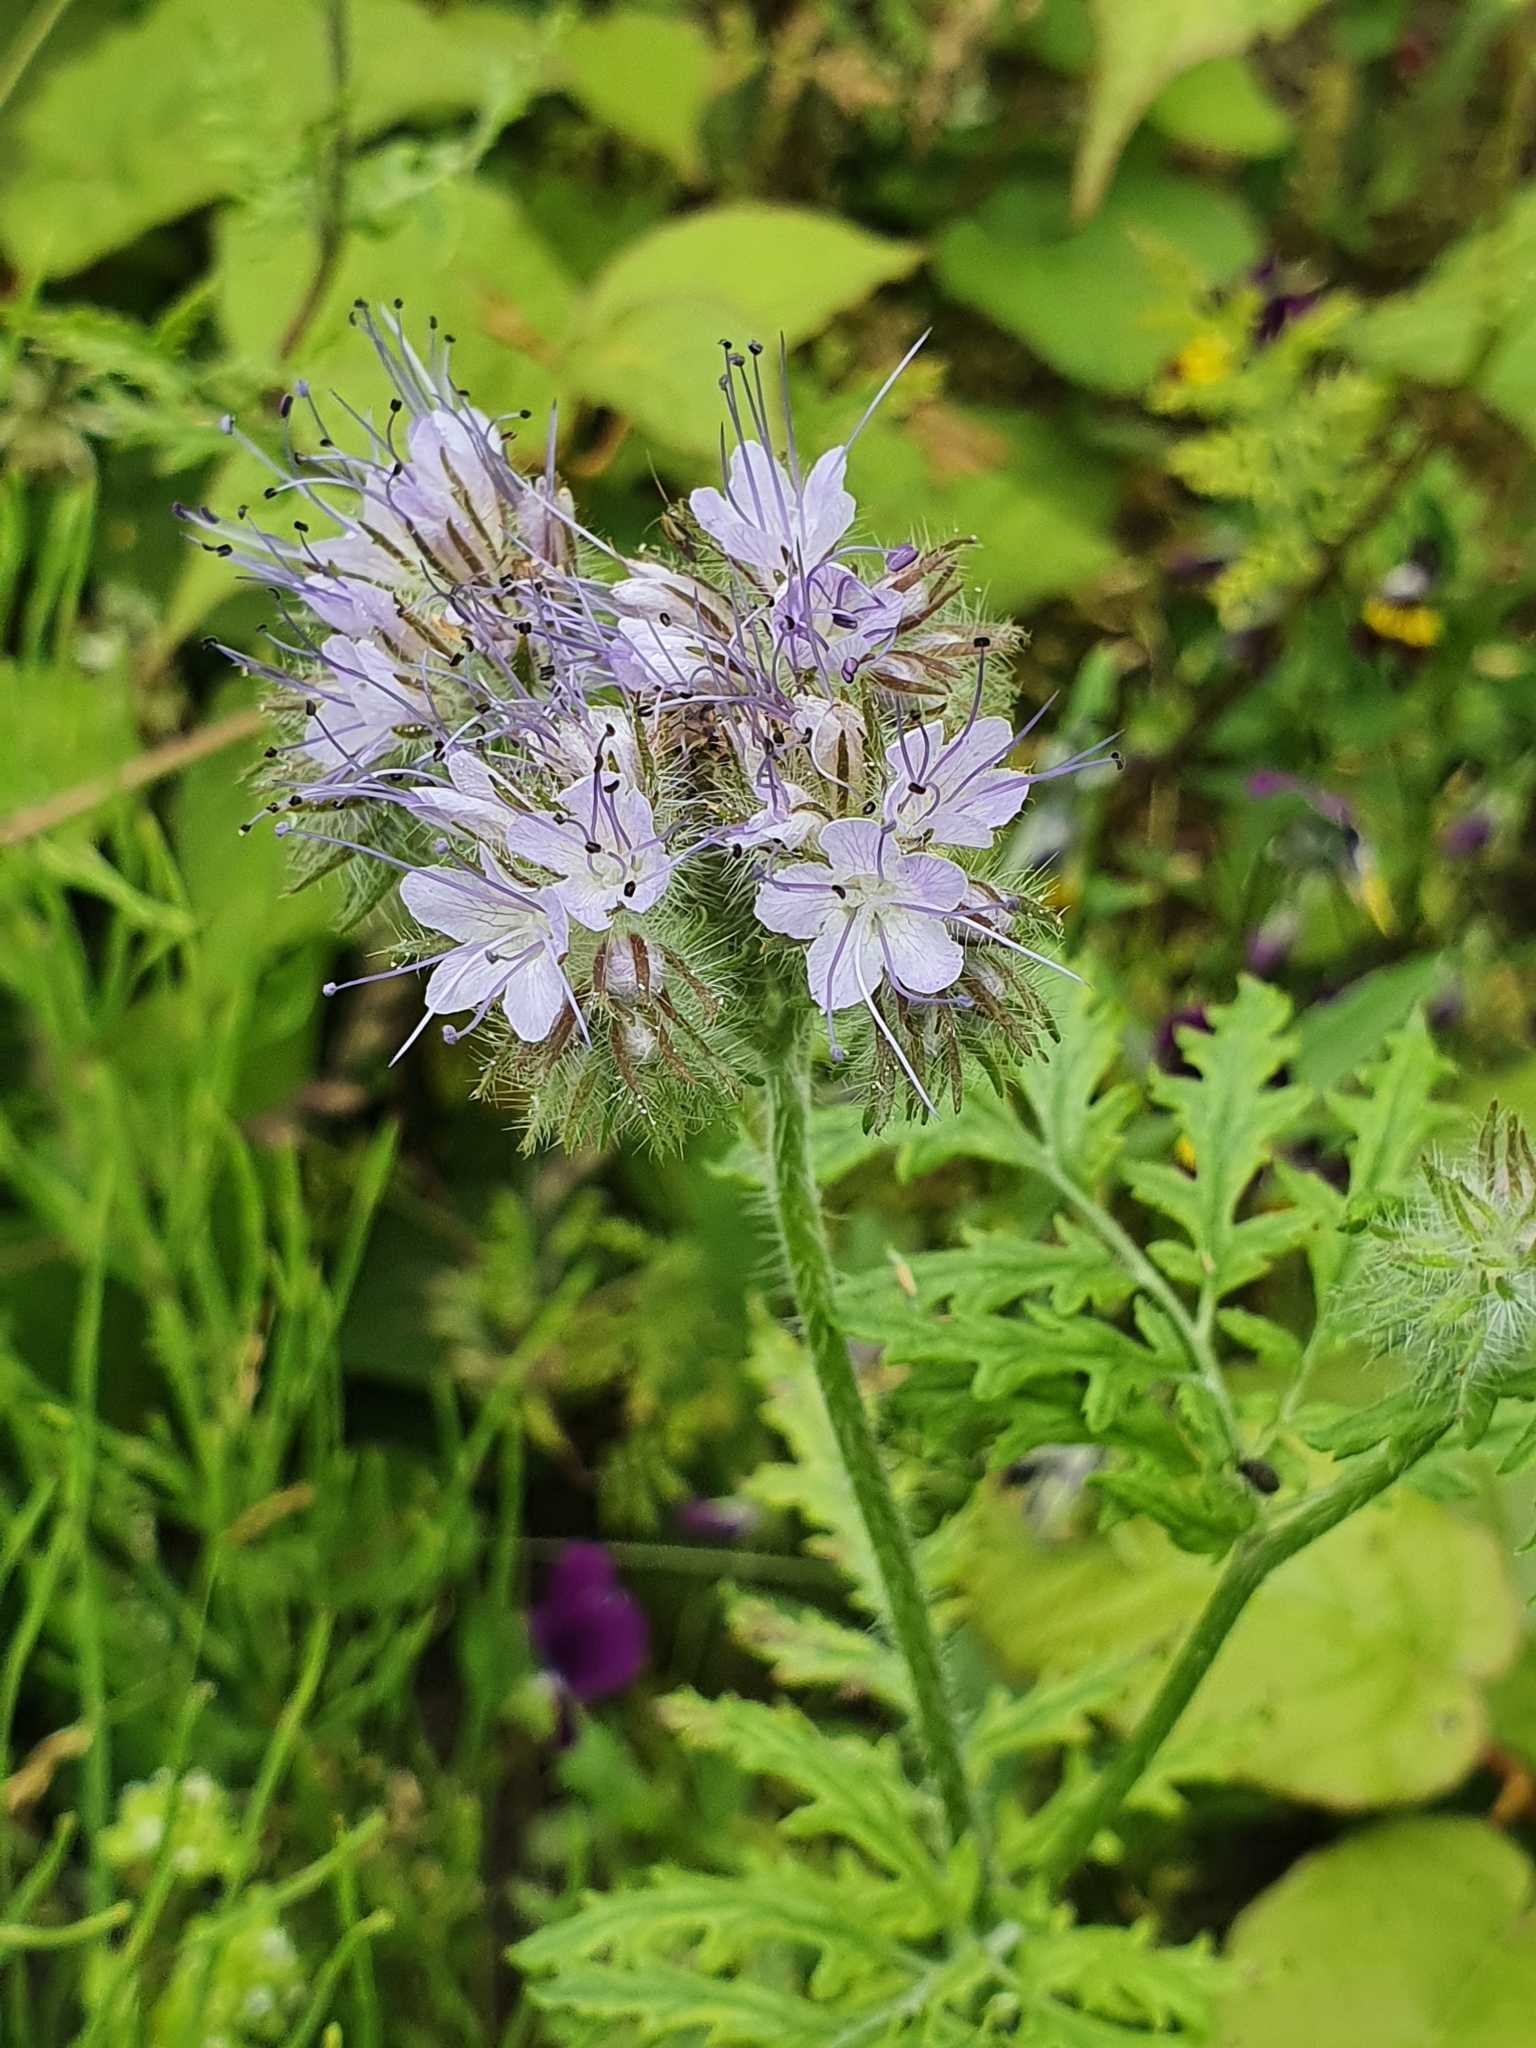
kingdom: Plantae
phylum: Tracheophyta
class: Magnoliopsida
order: Boraginales
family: Hydrophyllaceae
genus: Phacelia
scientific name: Phacelia tanacetifolia
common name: Phacelia
